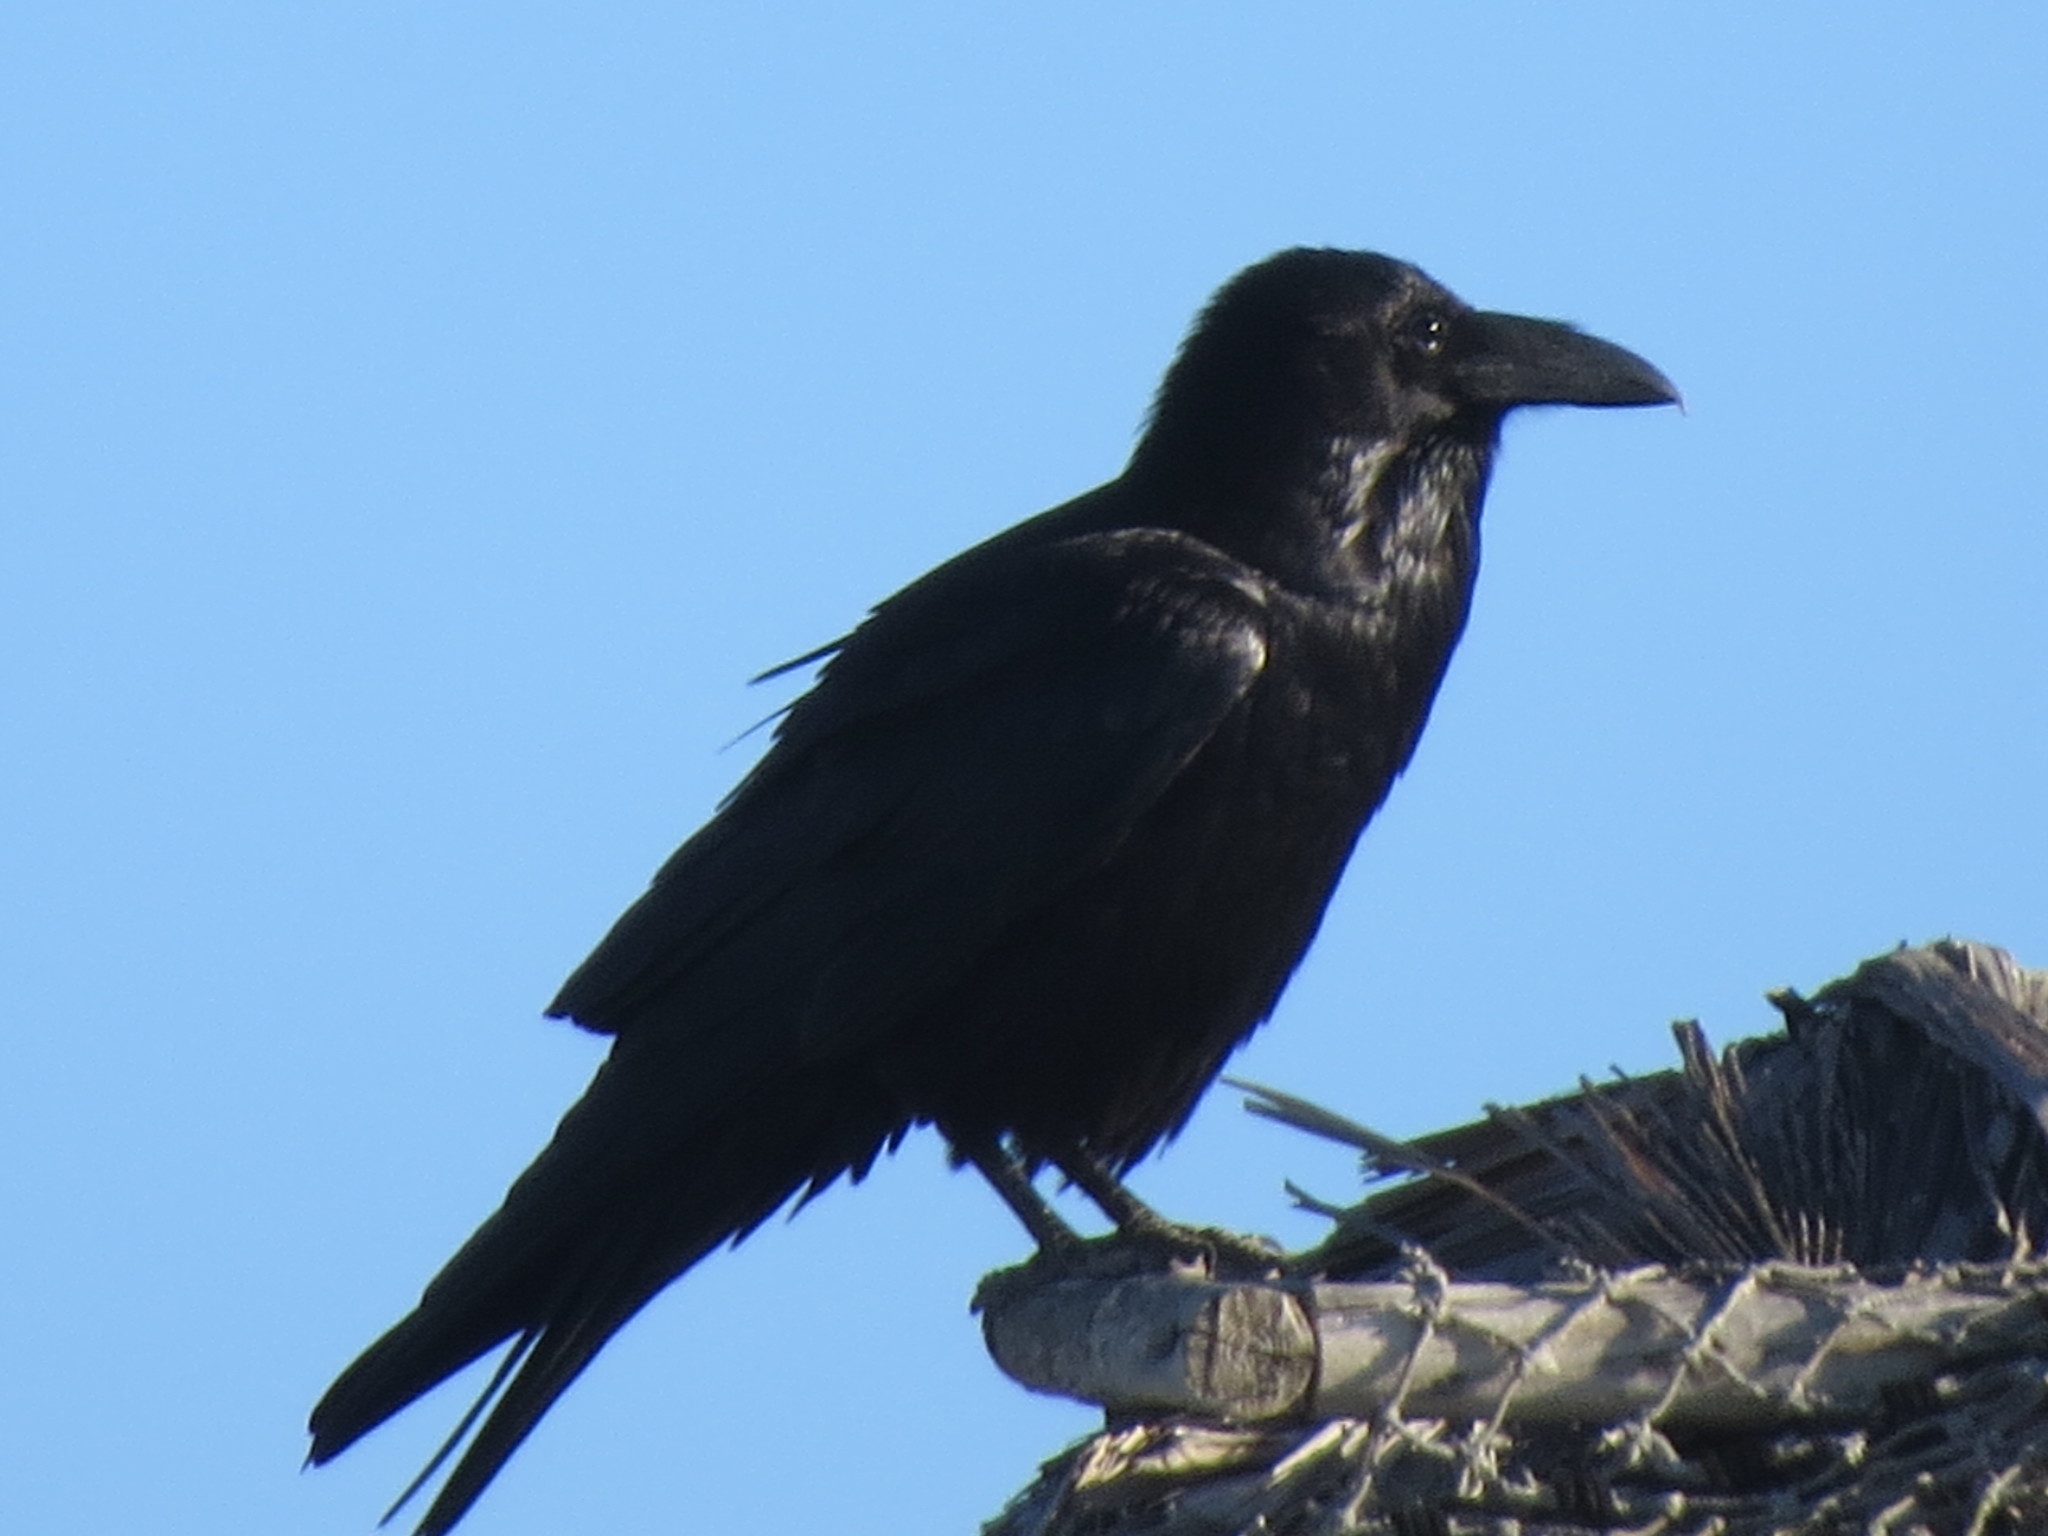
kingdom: Animalia
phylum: Chordata
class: Aves
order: Passeriformes
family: Corvidae
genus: Corvus
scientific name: Corvus corax
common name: Common raven
